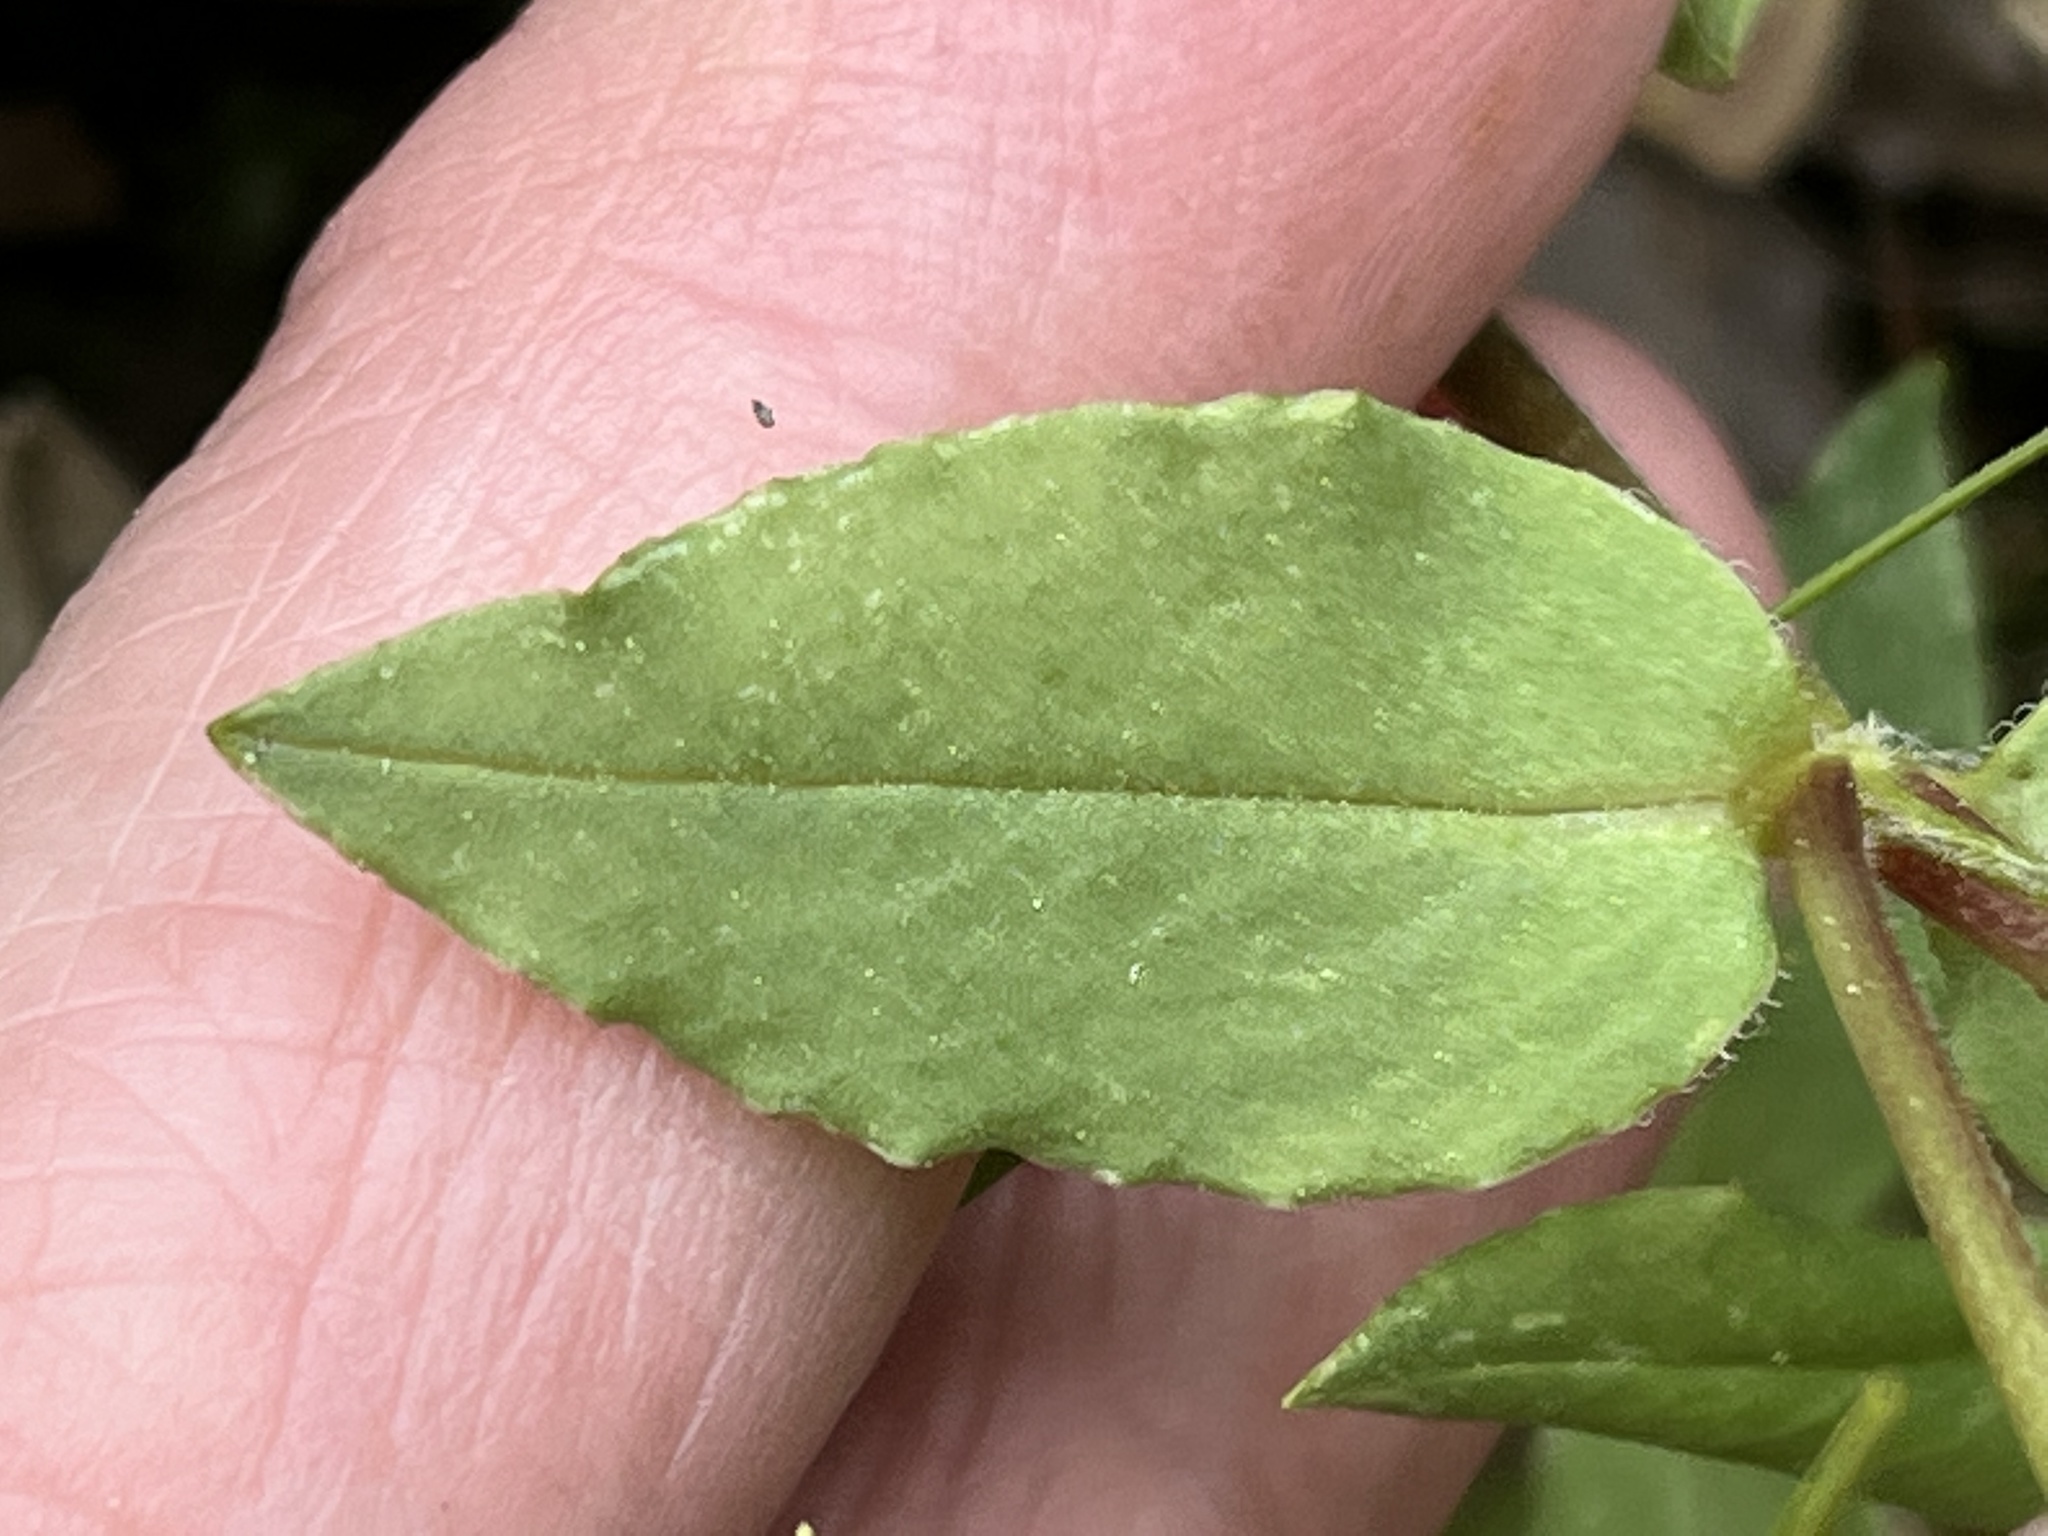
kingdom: Plantae
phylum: Tracheophyta
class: Magnoliopsida
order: Caryophyllales
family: Caryophyllaceae
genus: Stellaria
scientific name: Stellaria pubera
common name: Star chickweed
